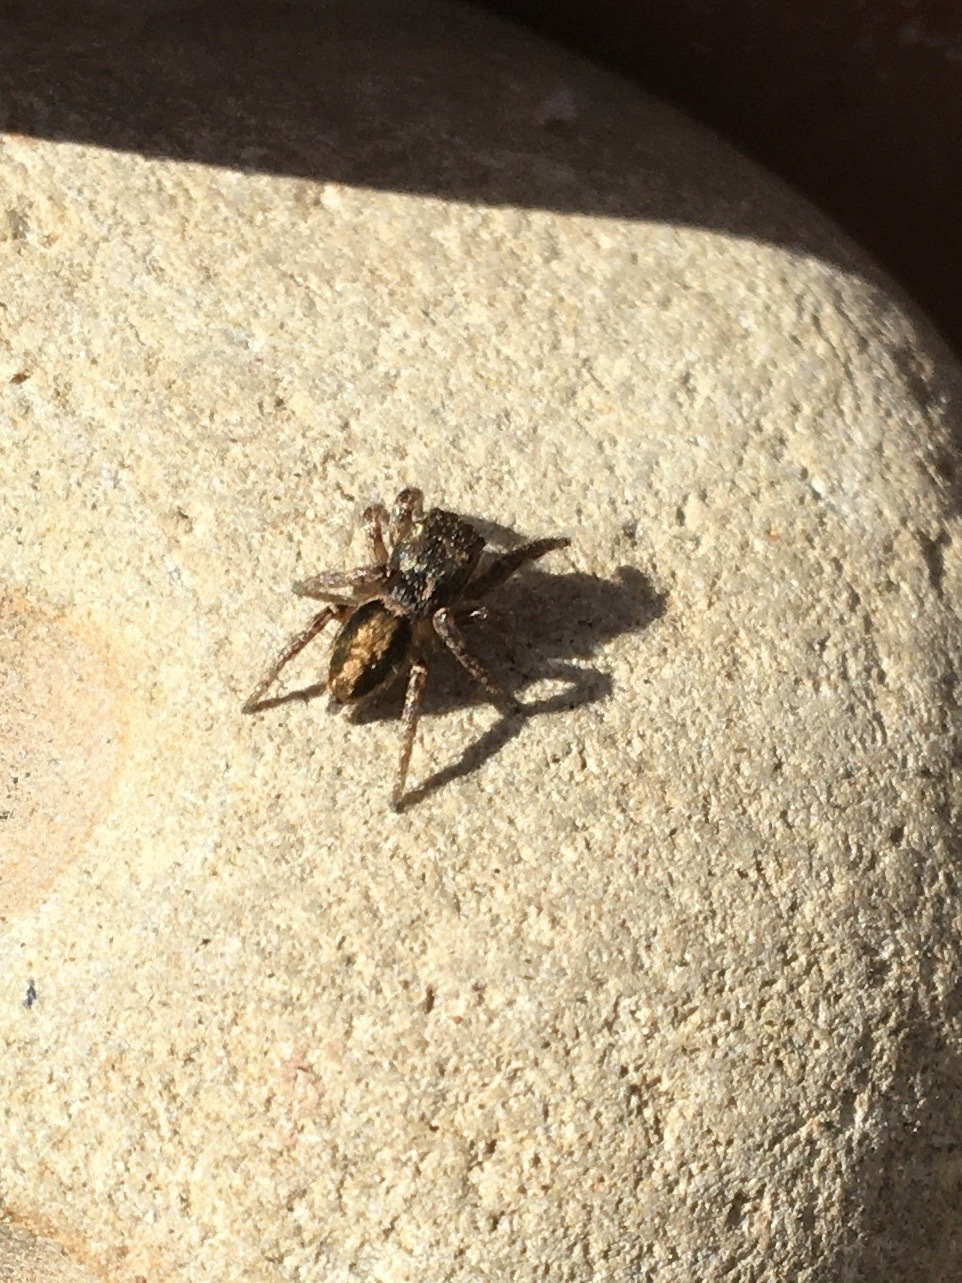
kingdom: Animalia
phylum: Arthropoda
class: Arachnida
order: Araneae
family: Salticidae
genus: Habronattus
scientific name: Habronattus pyrrithrix
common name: Jumping spider
